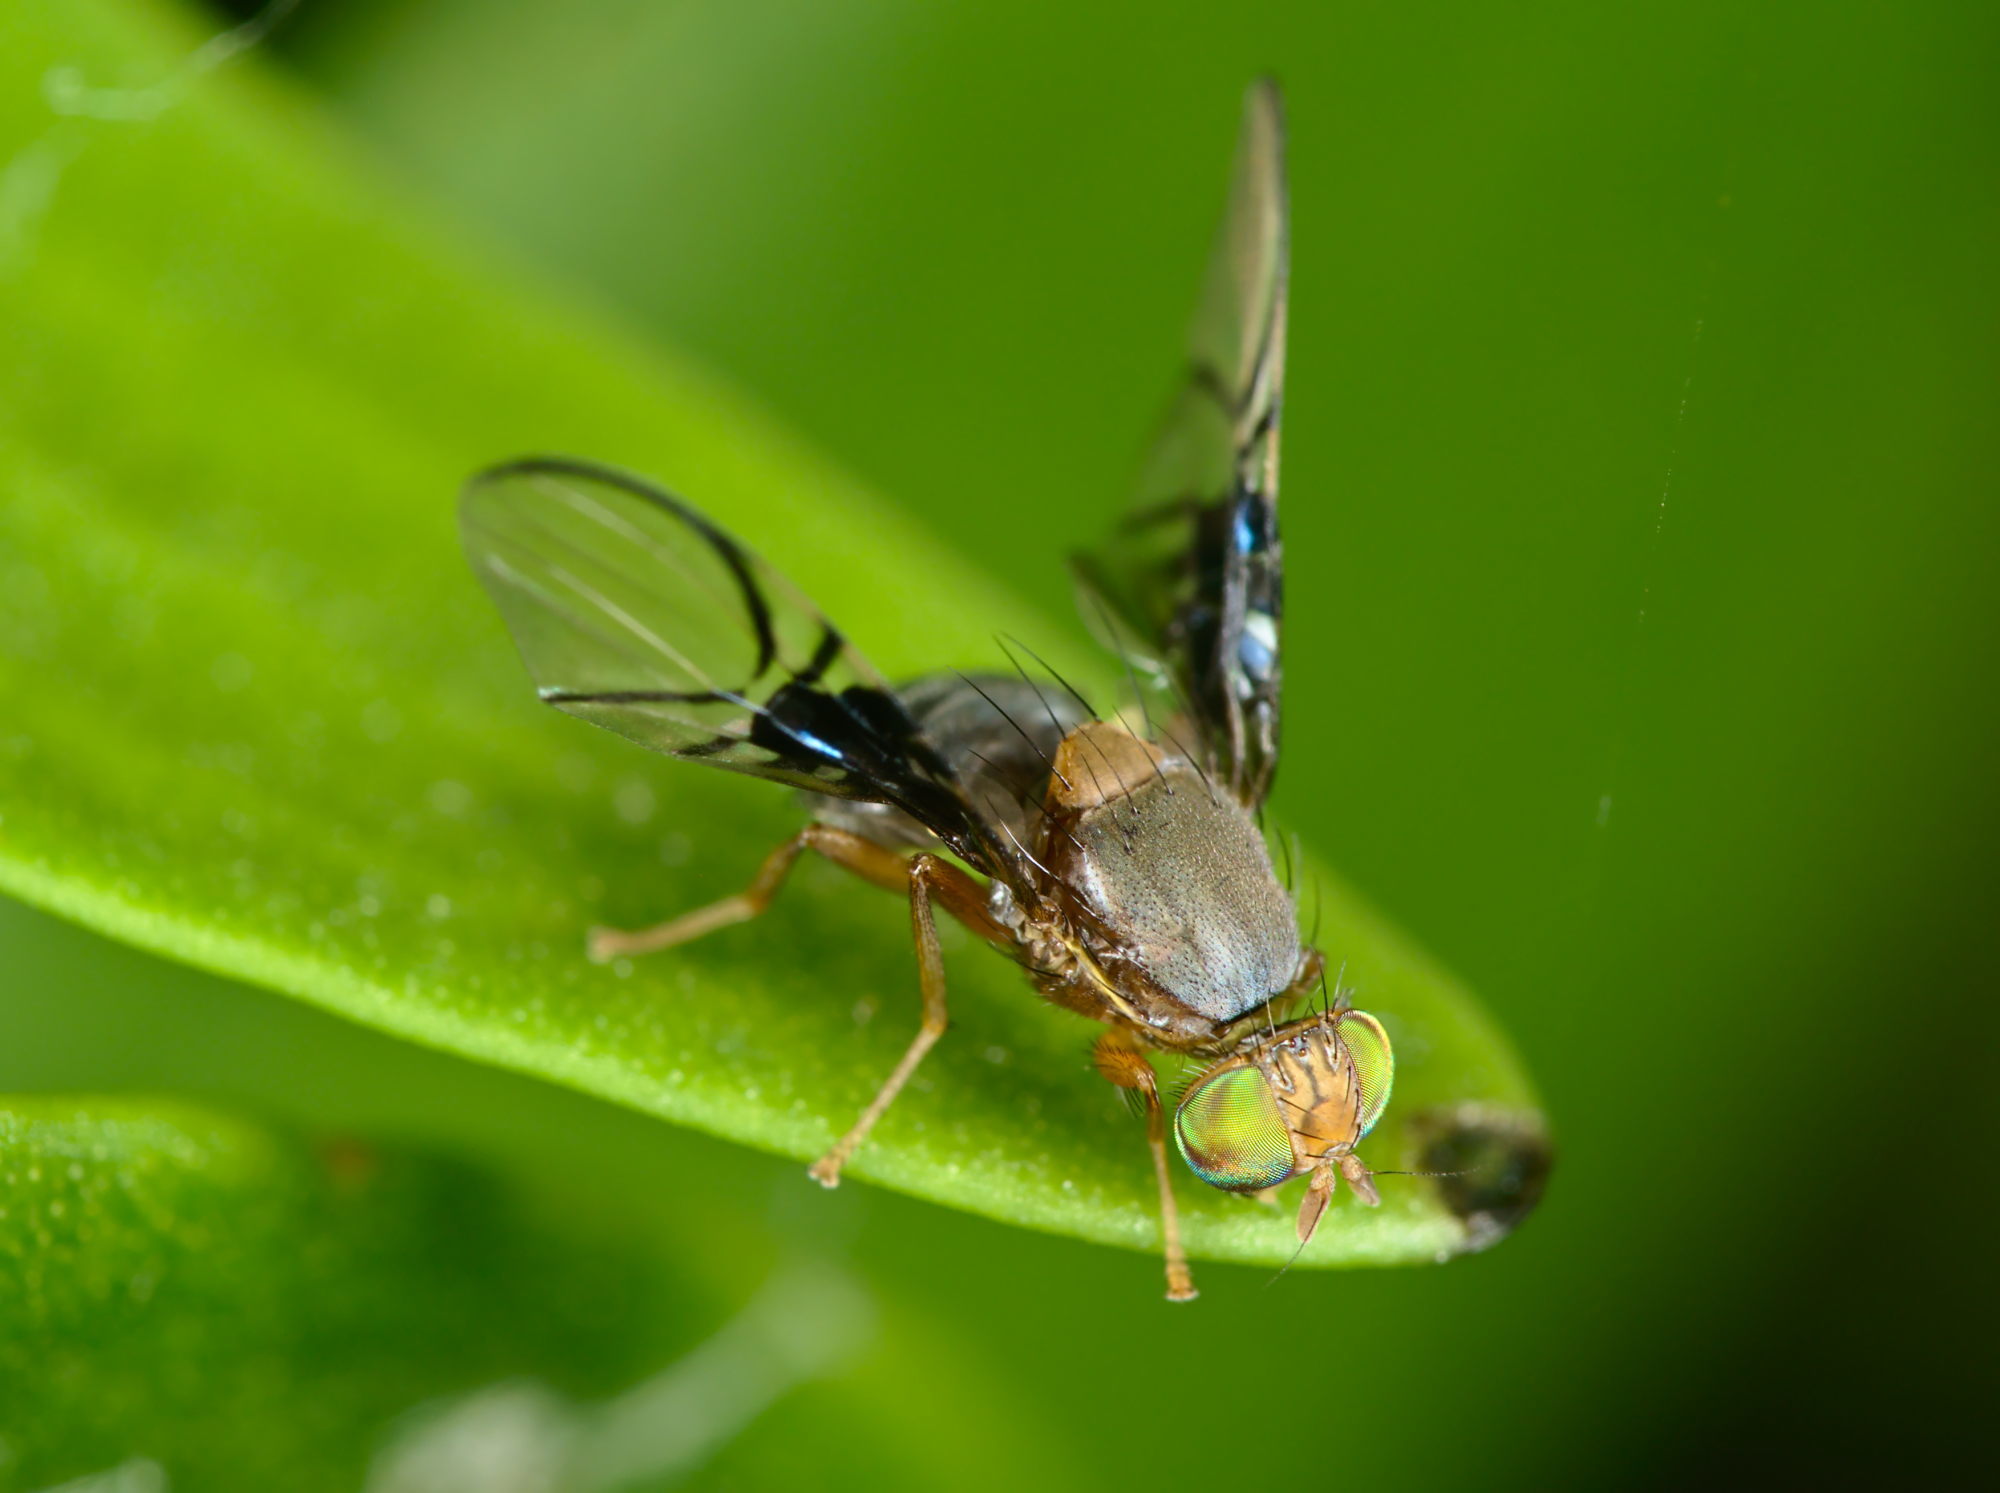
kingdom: Animalia
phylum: Arthropoda
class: Insecta
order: Diptera
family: Tephritidae
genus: Anomoia
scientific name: Anomoia purmunda
